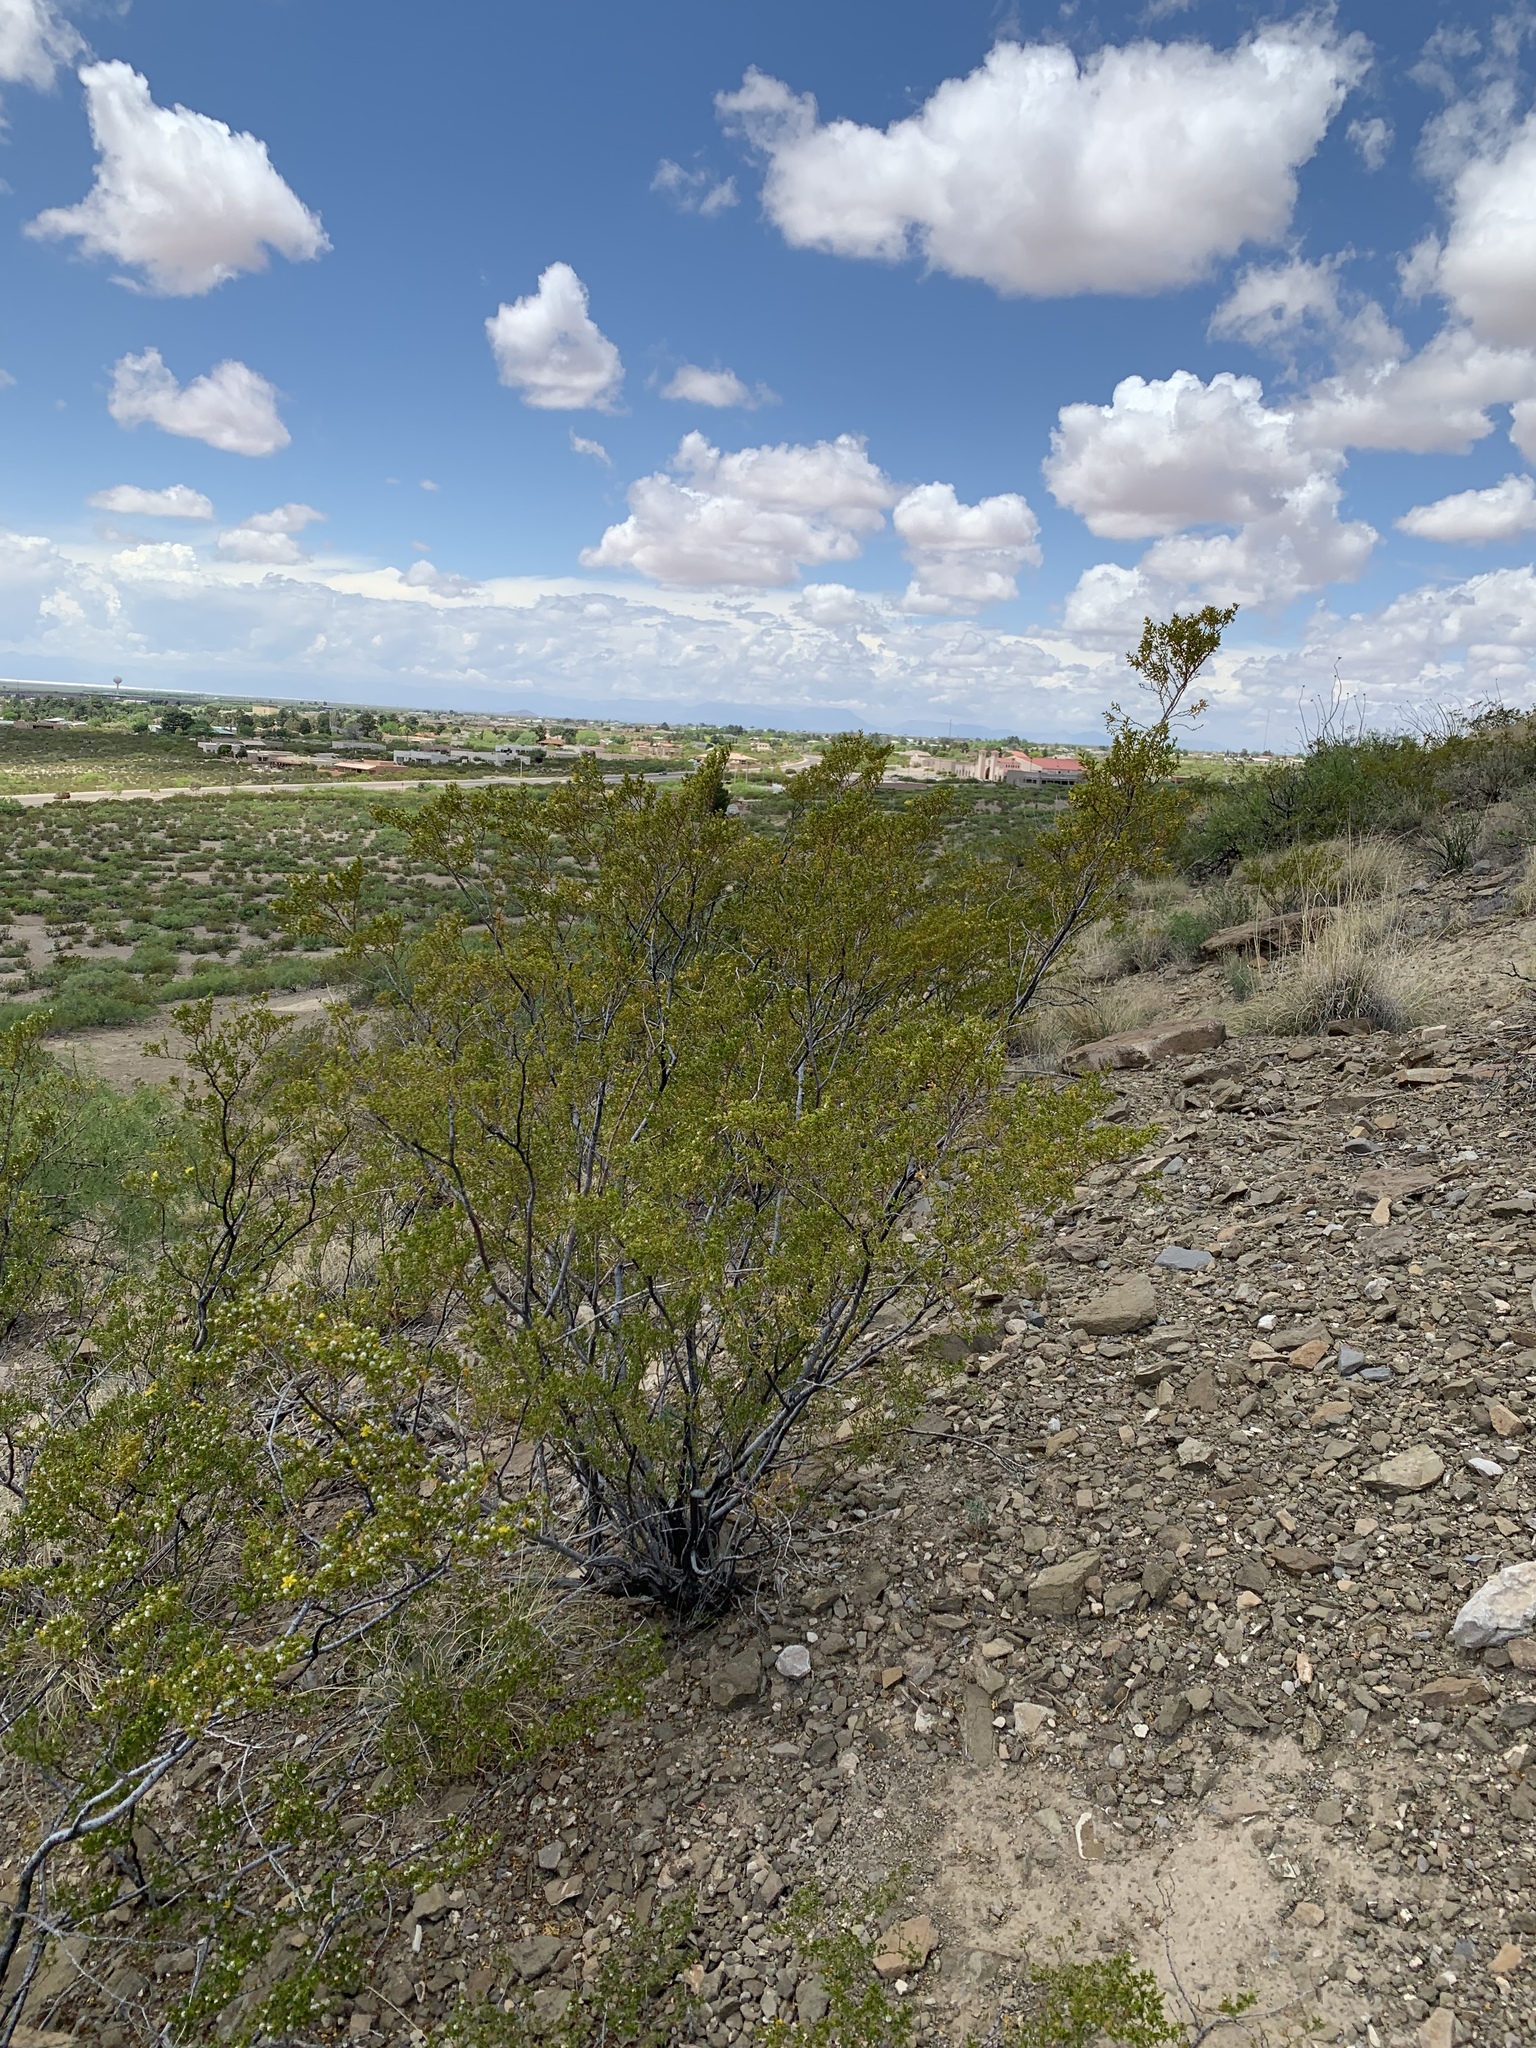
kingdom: Plantae
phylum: Tracheophyta
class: Magnoliopsida
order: Zygophyllales
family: Zygophyllaceae
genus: Larrea
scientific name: Larrea tridentata
